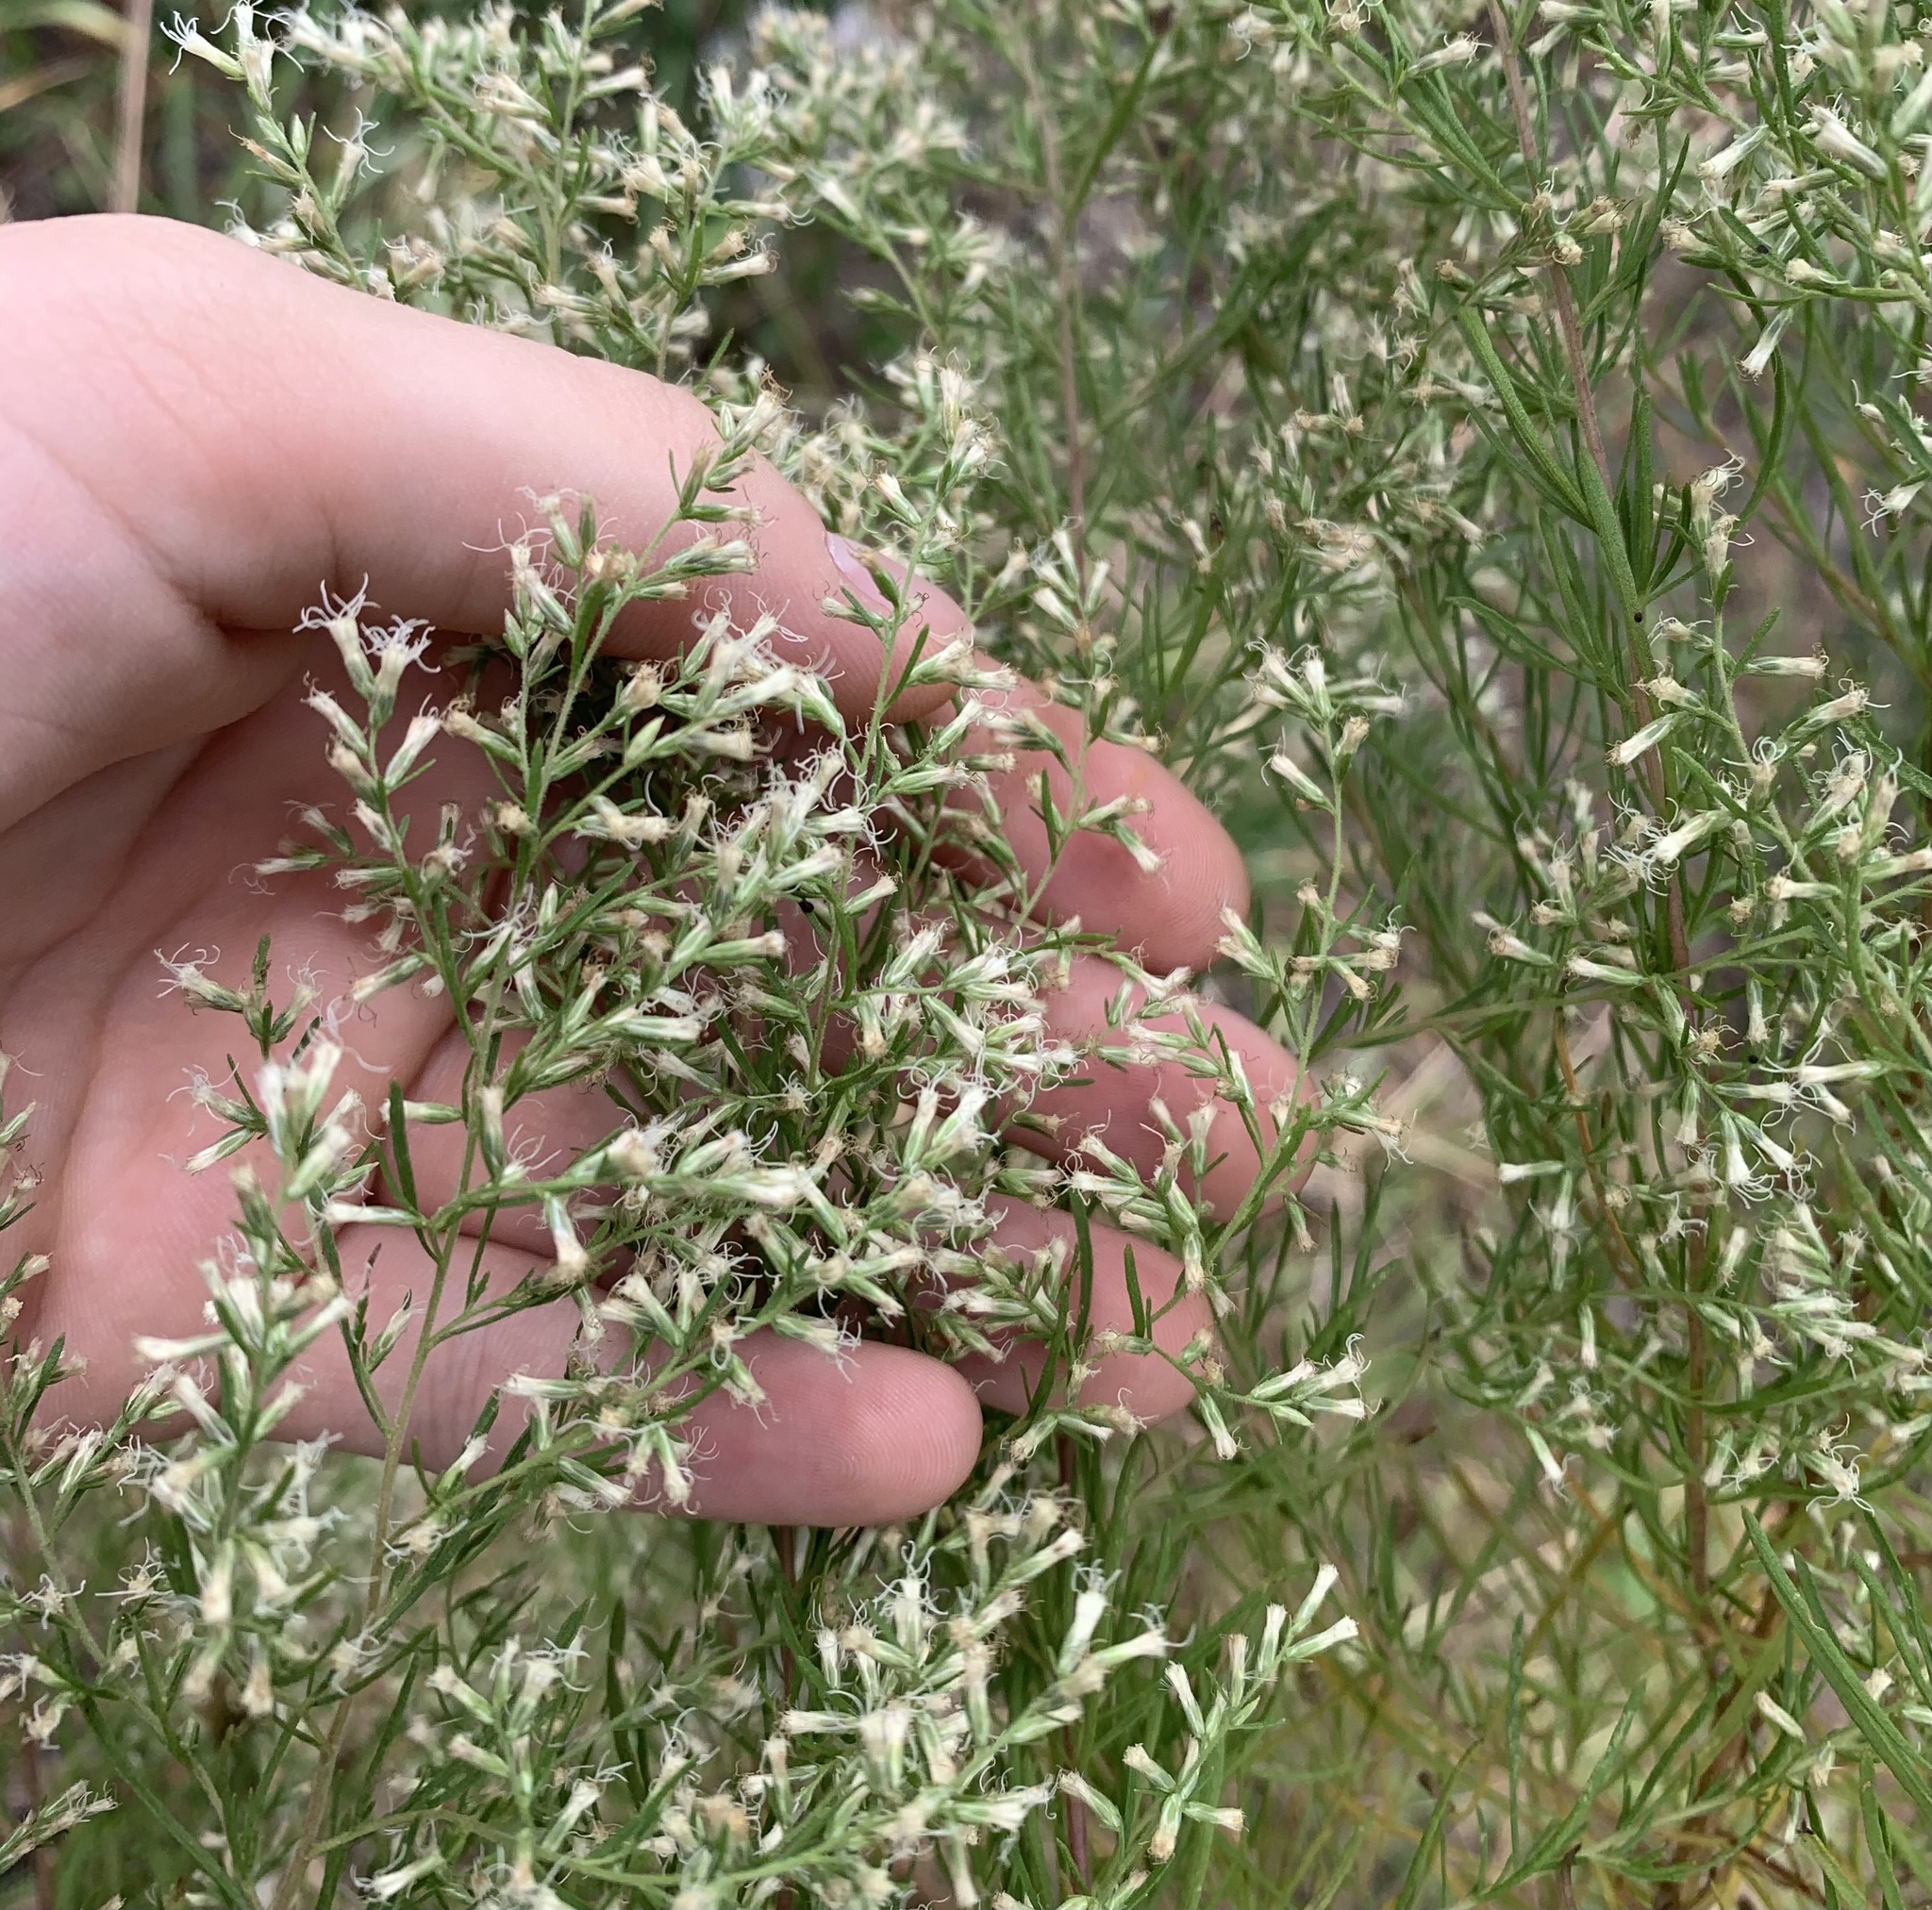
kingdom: Plantae
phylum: Tracheophyta
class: Magnoliopsida
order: Asterales
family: Asteraceae
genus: Eupatorium
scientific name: Eupatorium capillifolium
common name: Dog-fennel
